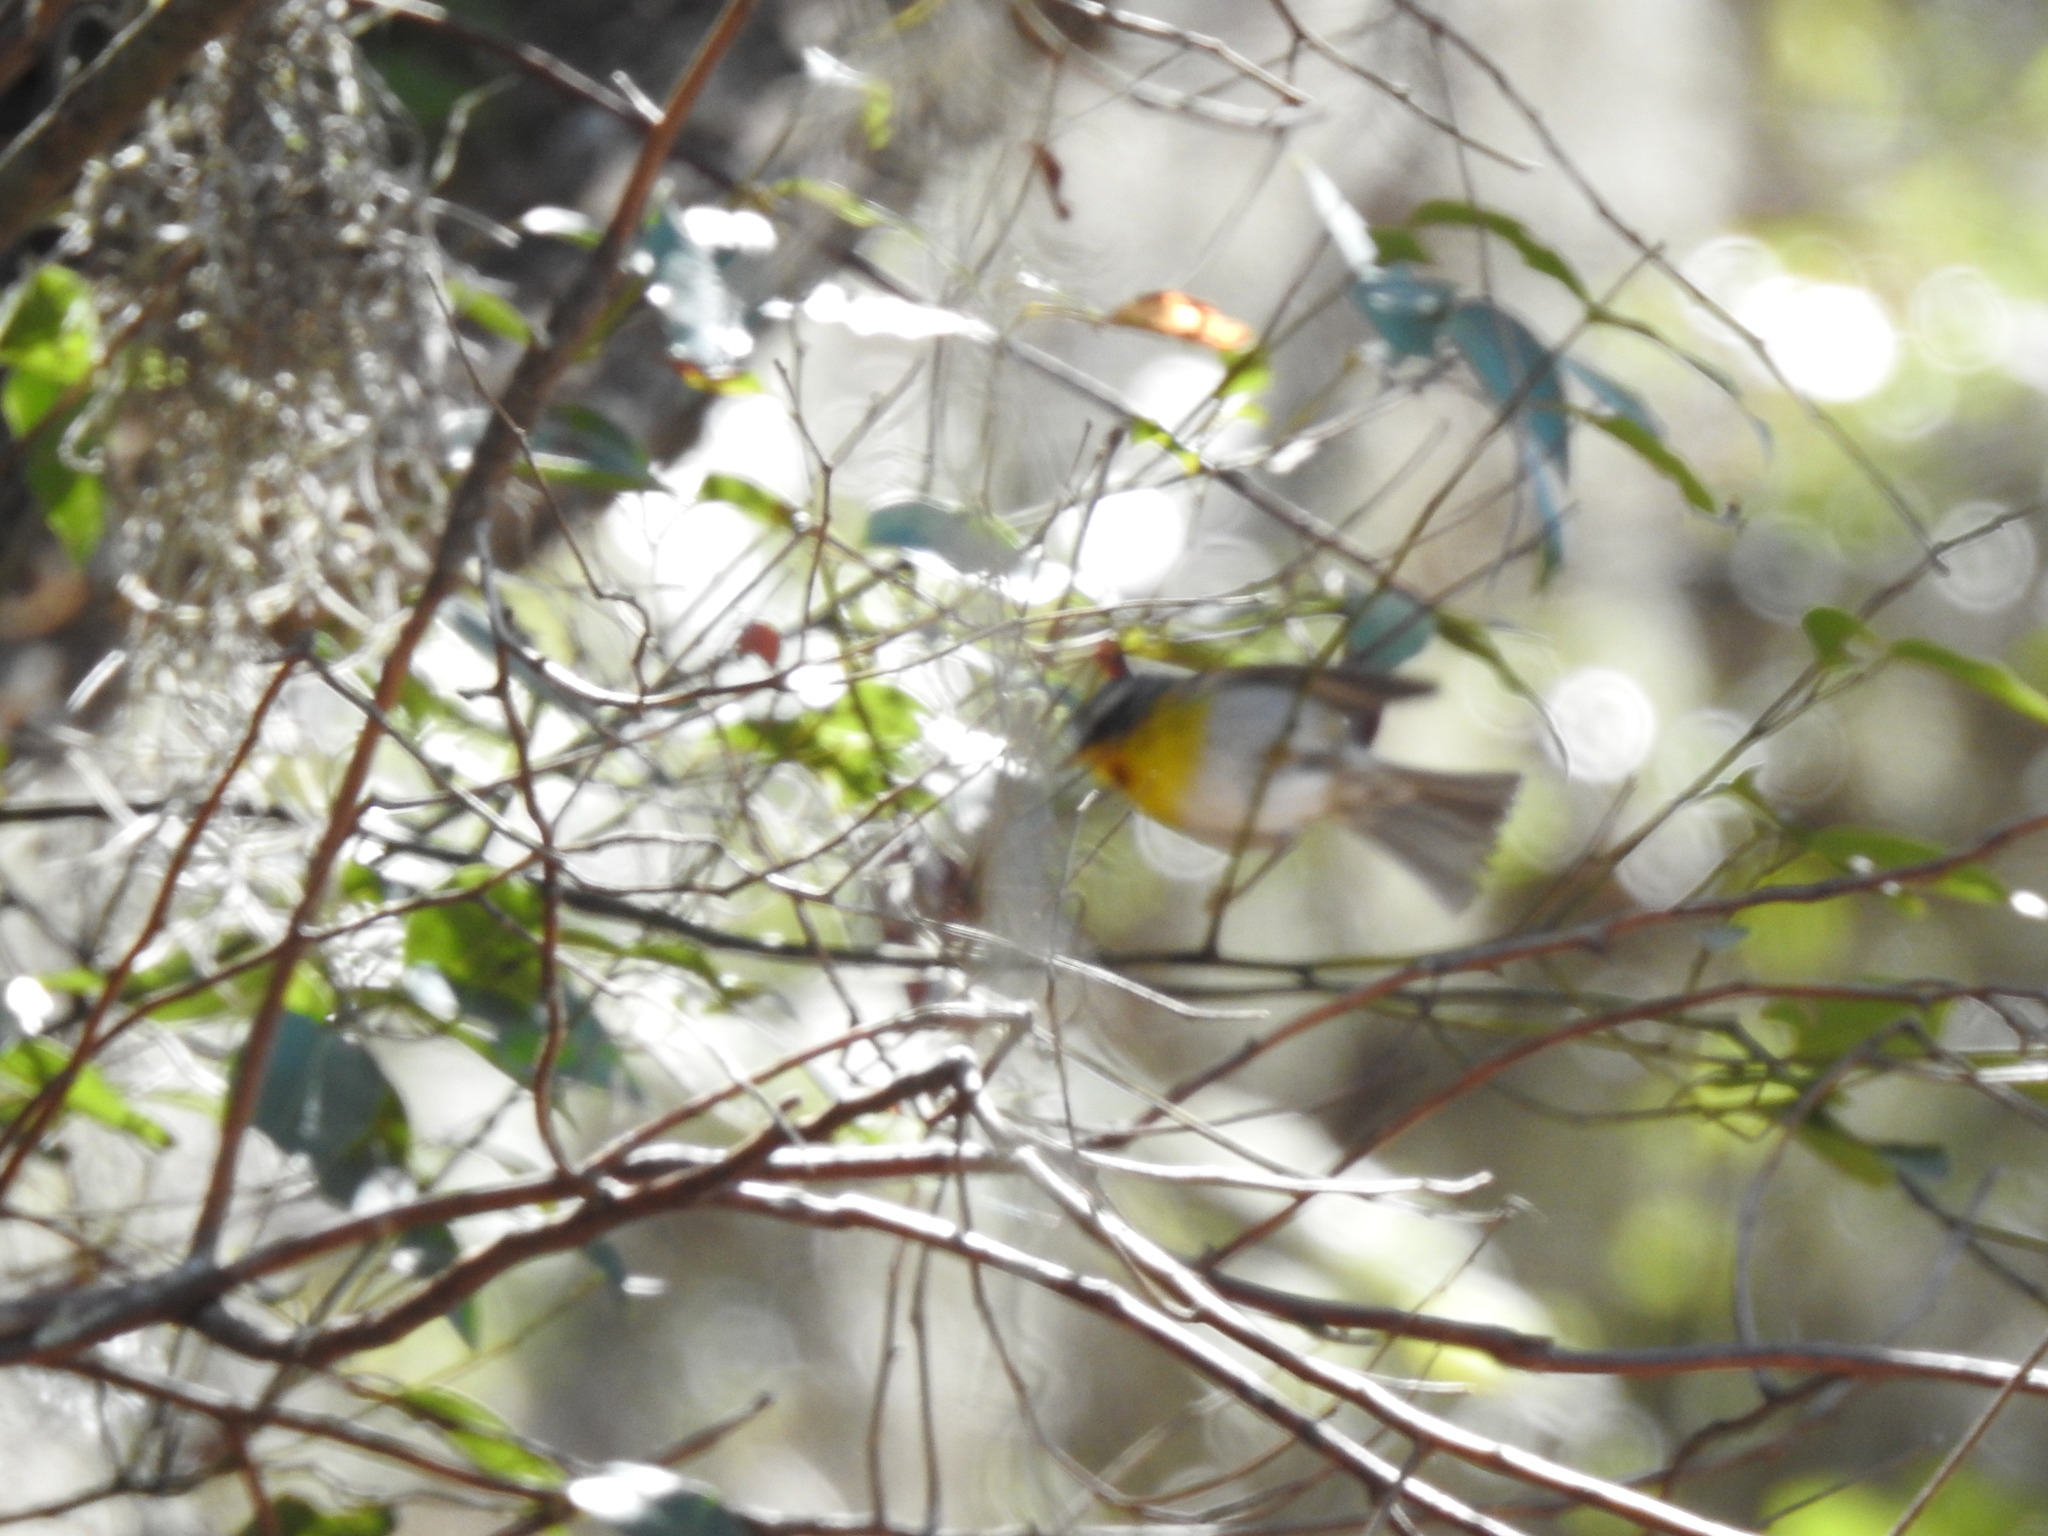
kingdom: Animalia
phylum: Chordata
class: Aves
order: Passeriformes
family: Parulidae
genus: Oreothlypis
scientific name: Oreothlypis superciliosa
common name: Crescent-chested warbler
